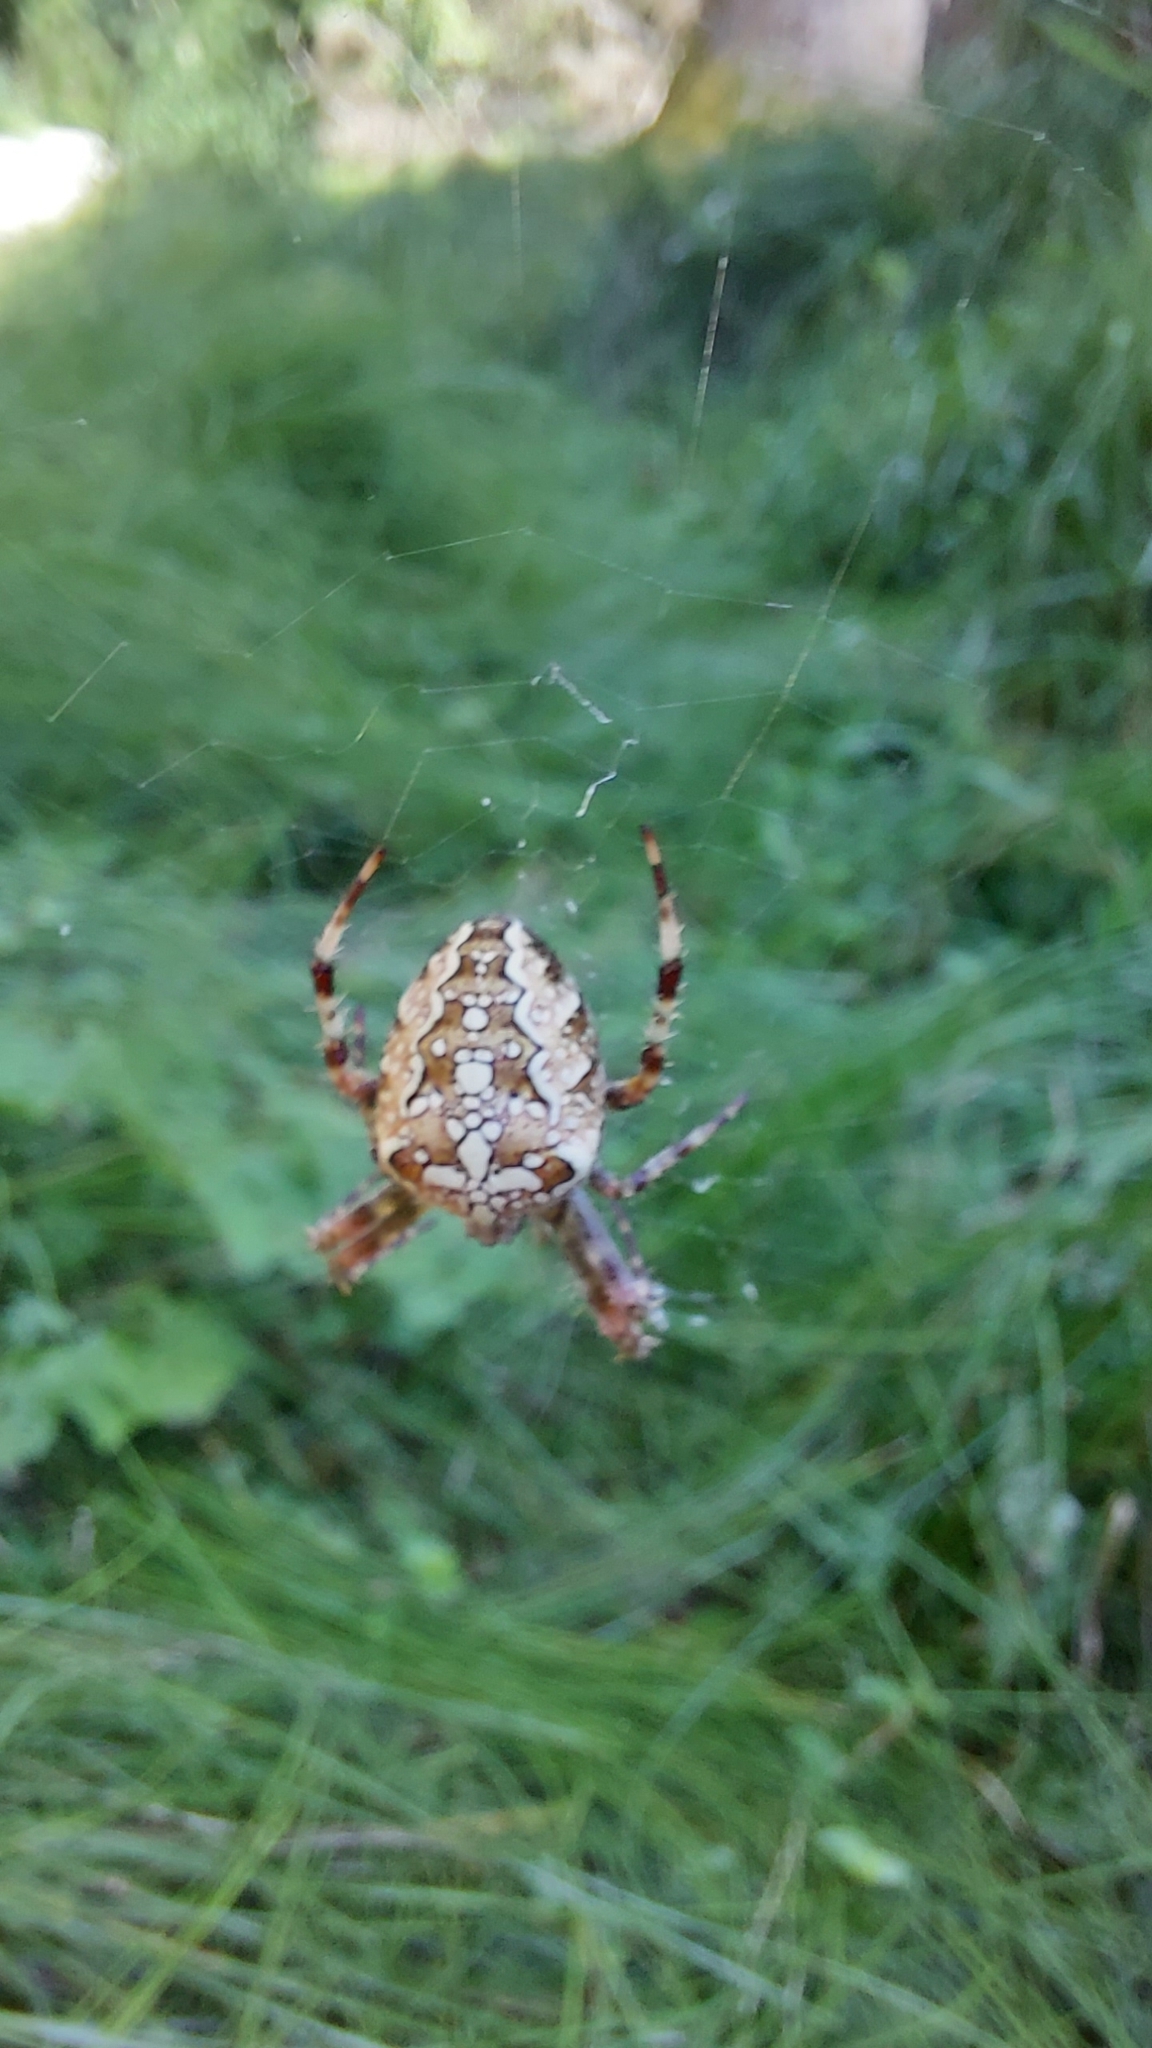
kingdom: Animalia
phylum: Arthropoda
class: Arachnida
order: Araneae
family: Araneidae
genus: Araneus
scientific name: Araneus diadematus
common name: Cross orbweaver
